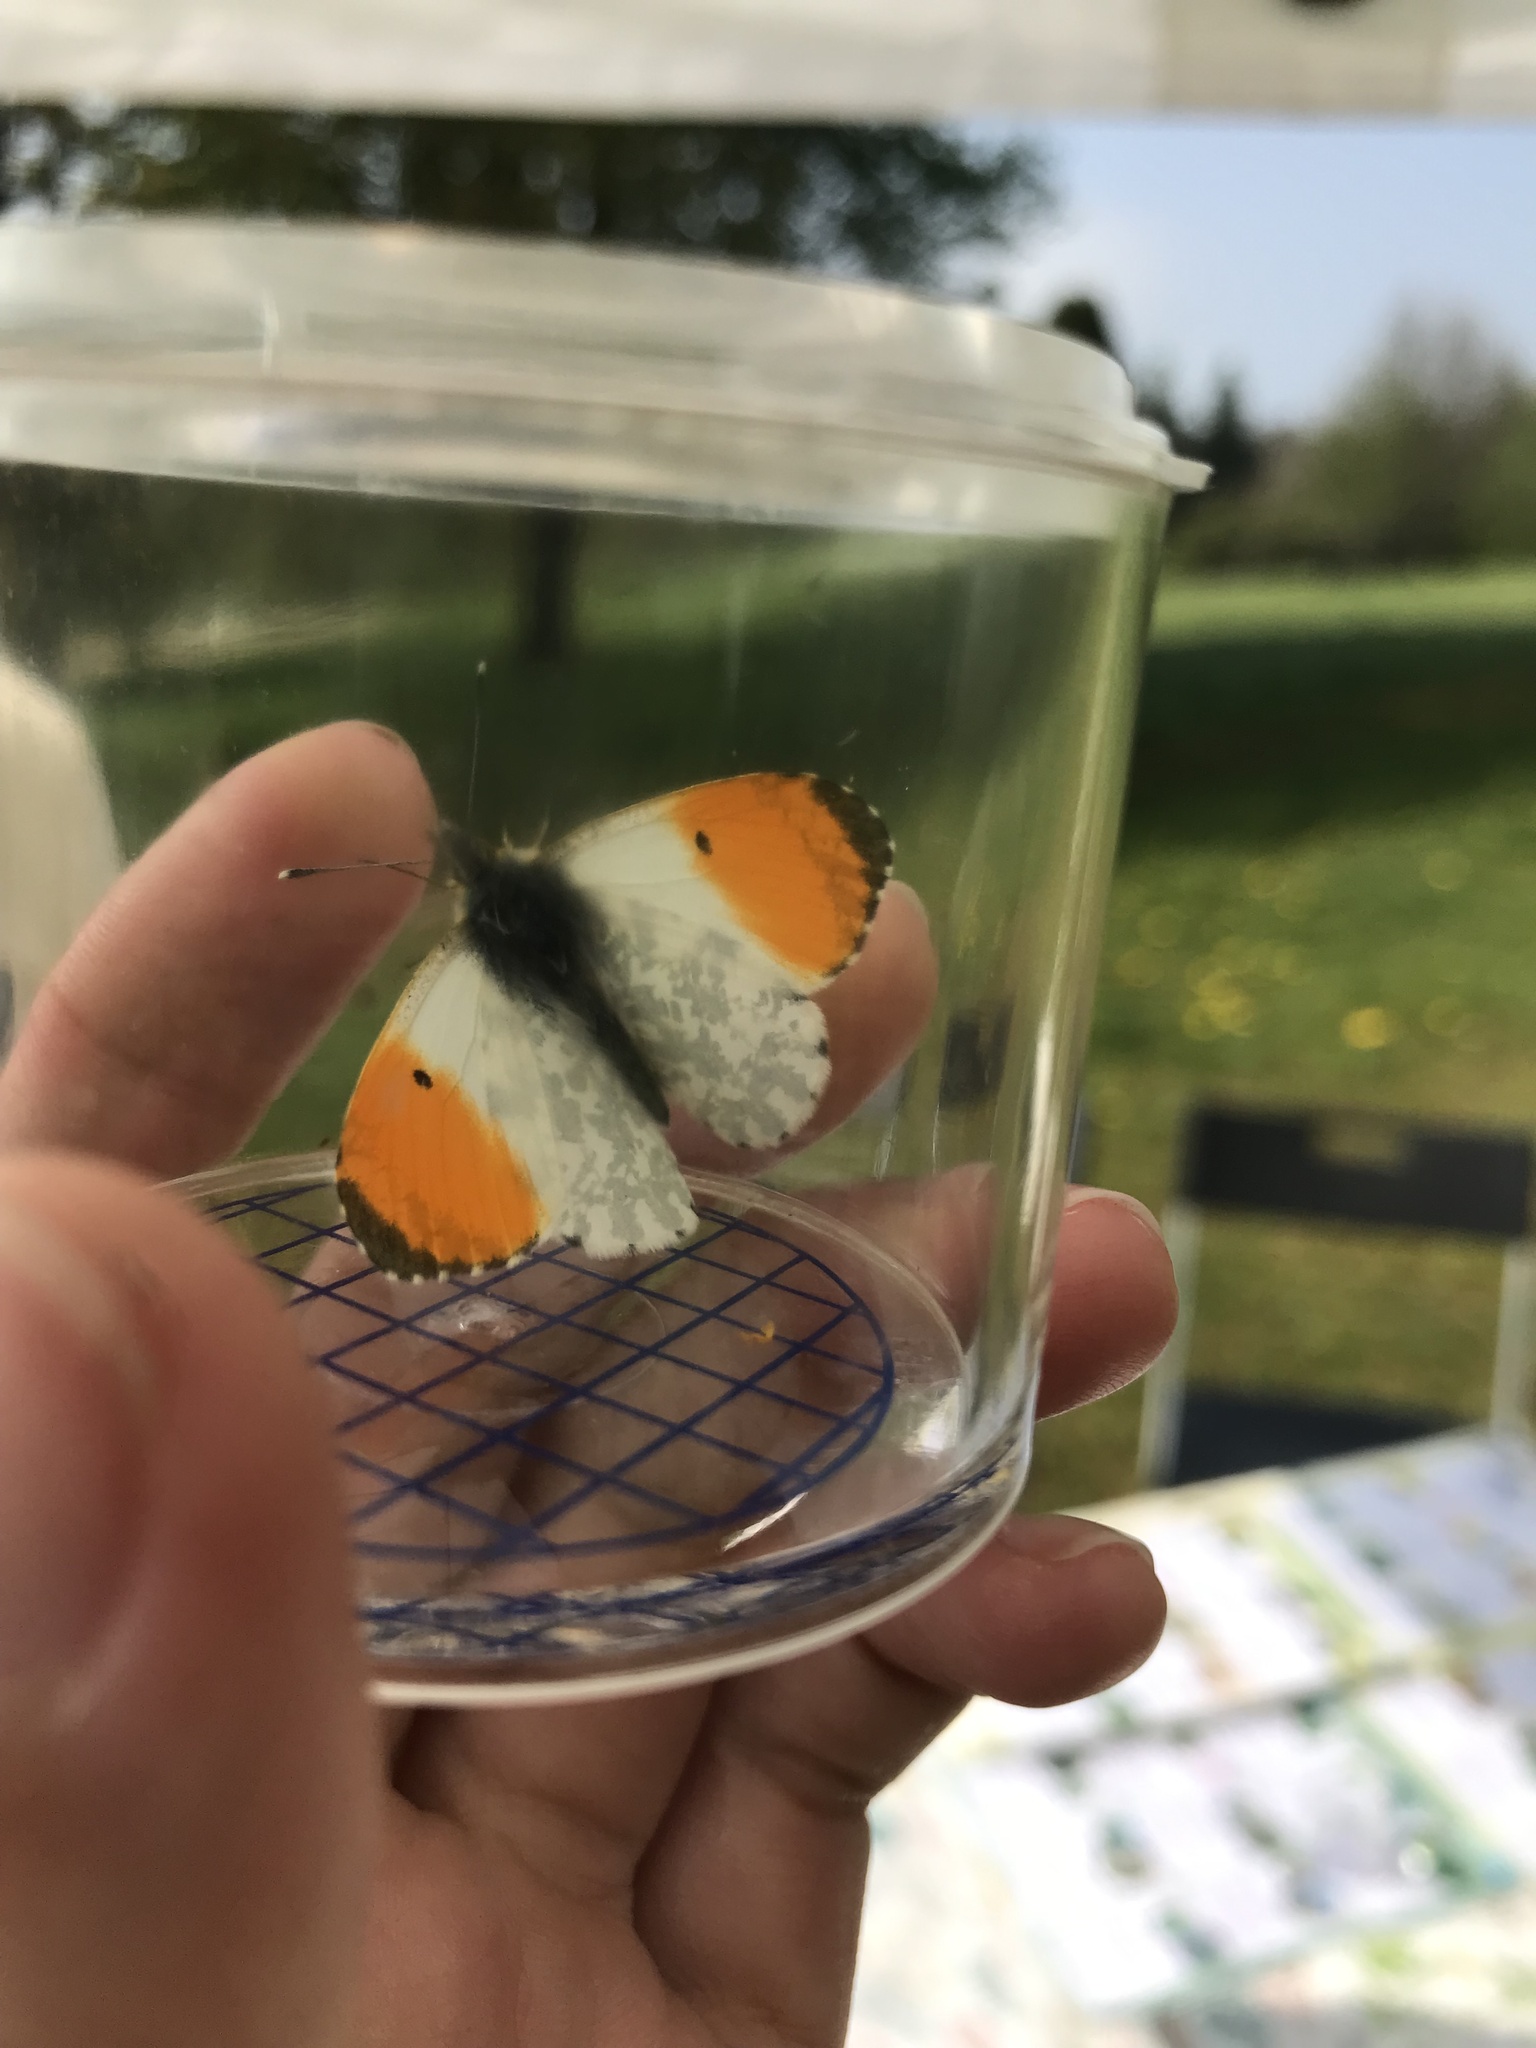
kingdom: Animalia
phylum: Arthropoda
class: Insecta
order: Lepidoptera
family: Pieridae
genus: Anthocharis
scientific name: Anthocharis cardamines
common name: Orange-tip
